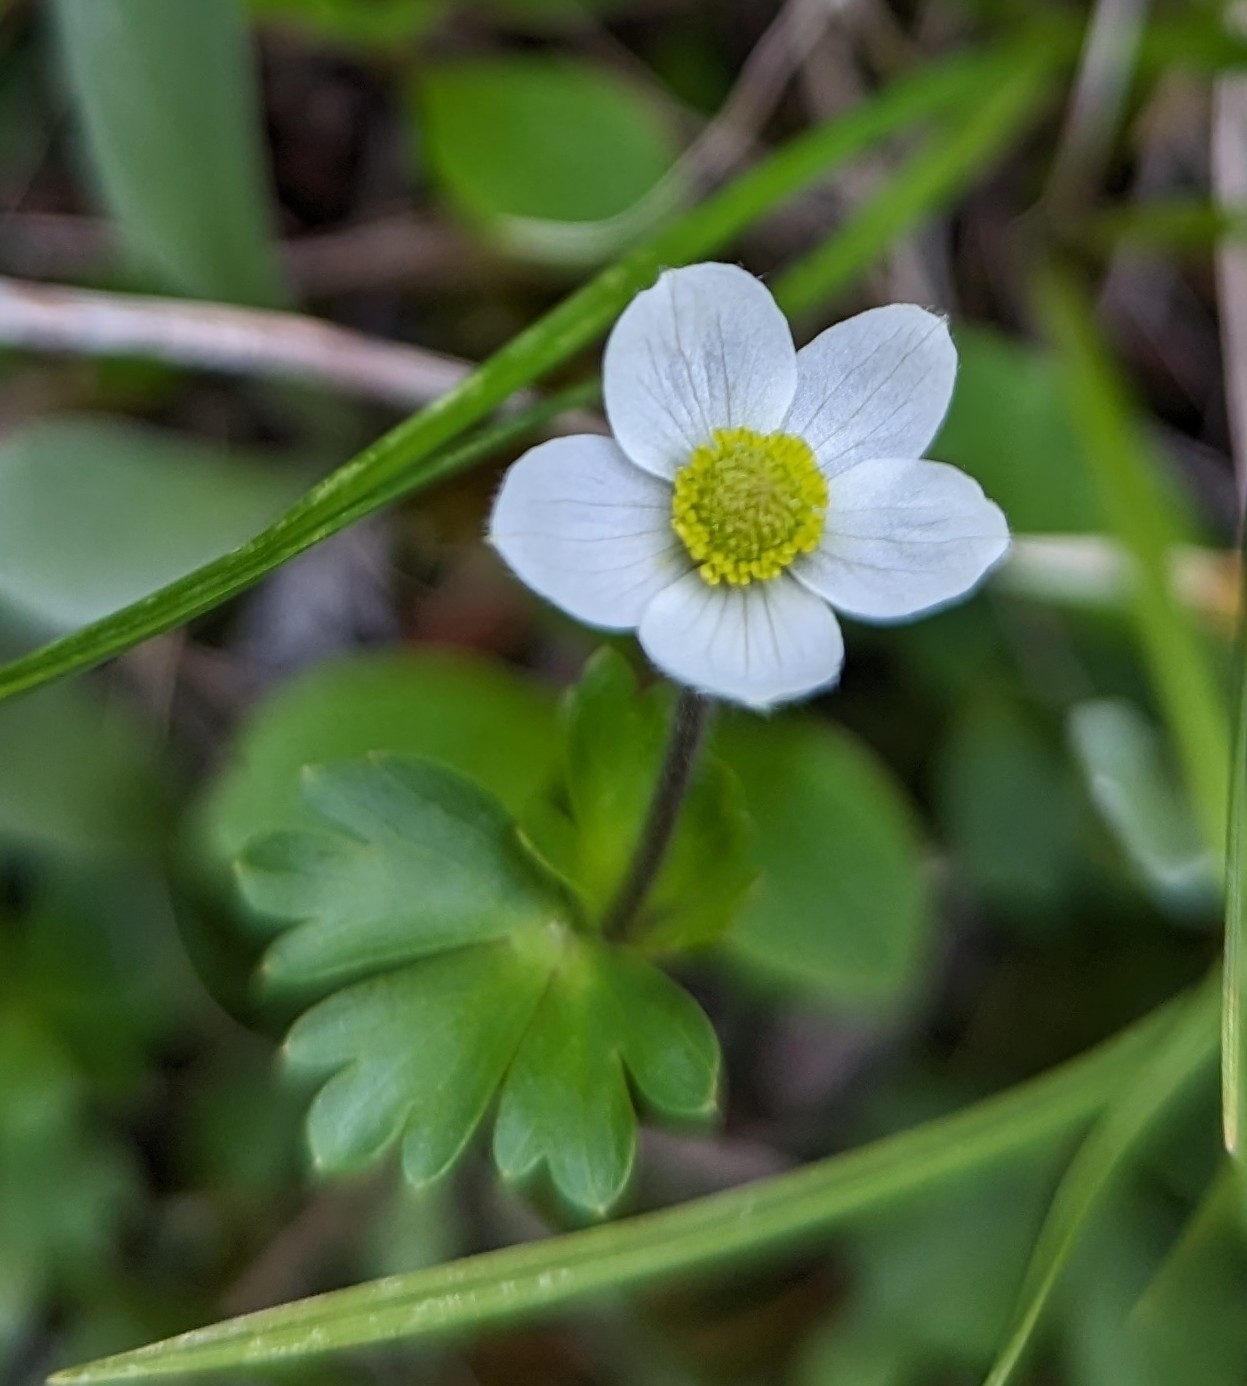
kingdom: Plantae
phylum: Tracheophyta
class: Magnoliopsida
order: Ranunculales
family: Ranunculaceae
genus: Anemone
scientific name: Anemone parviflora
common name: Northern anemone
